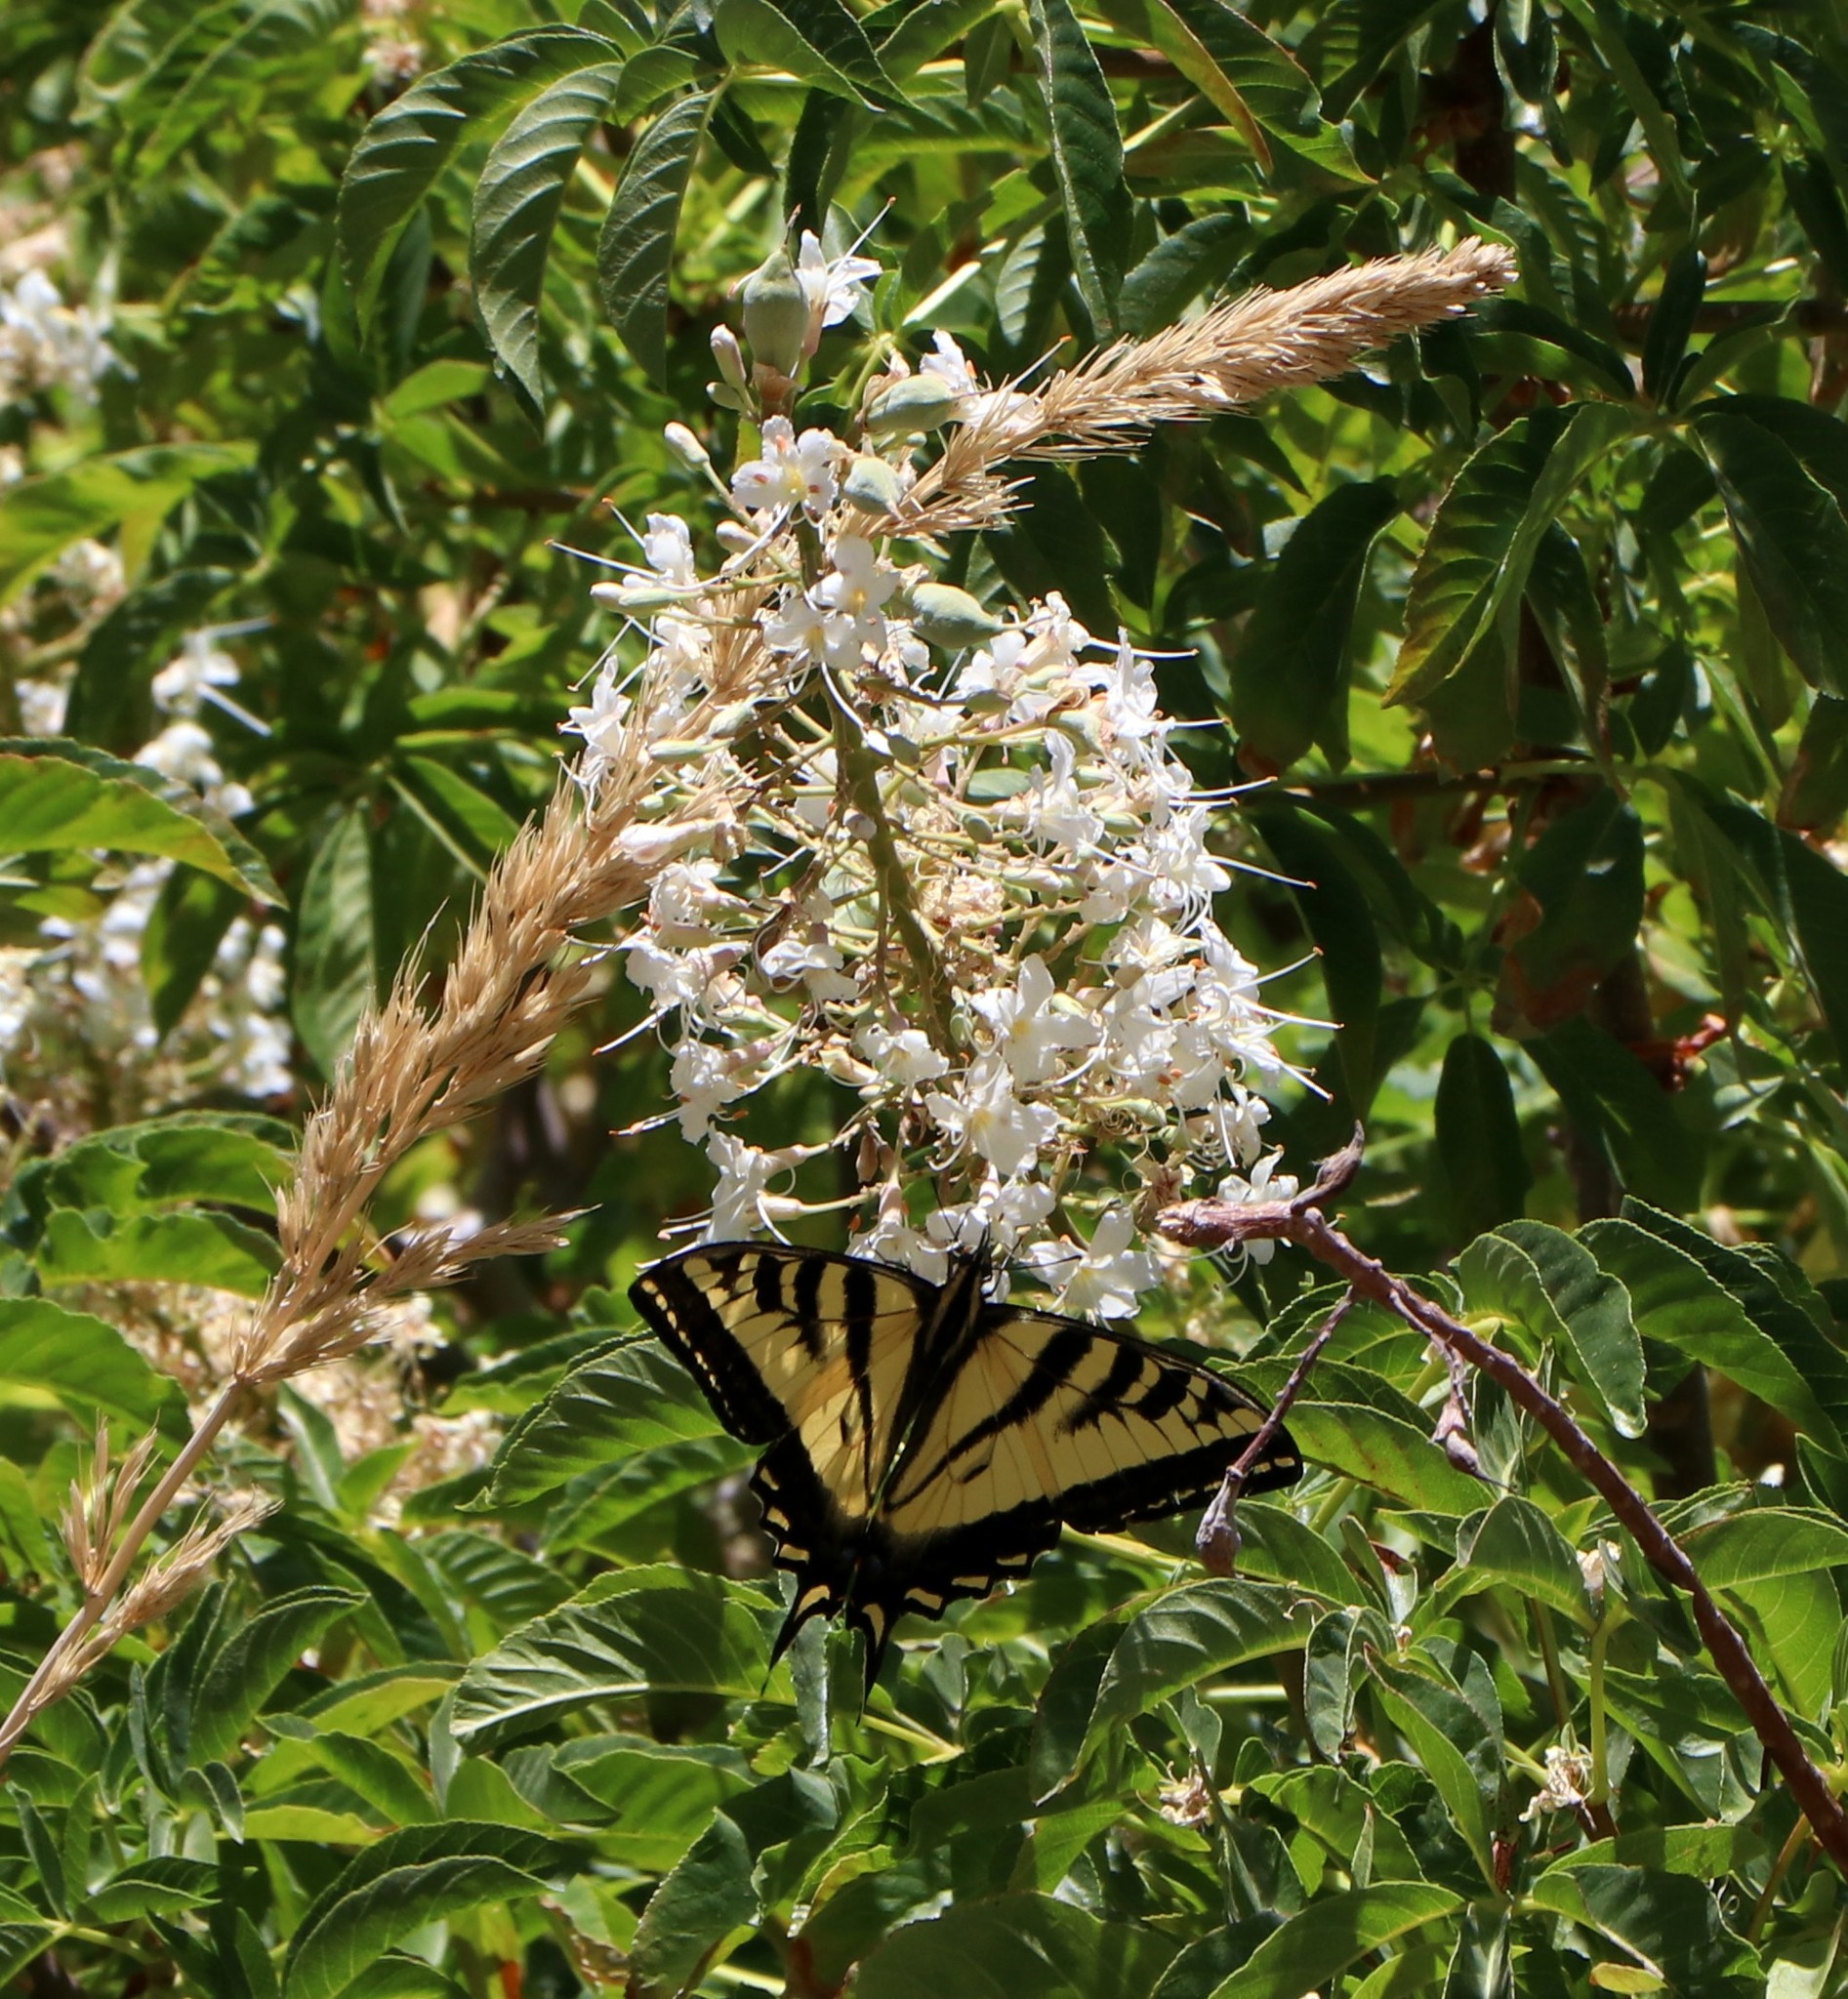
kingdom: Animalia
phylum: Arthropoda
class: Insecta
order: Lepidoptera
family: Papilionidae
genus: Papilio
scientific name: Papilio rutulus
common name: Western tiger swallowtail
